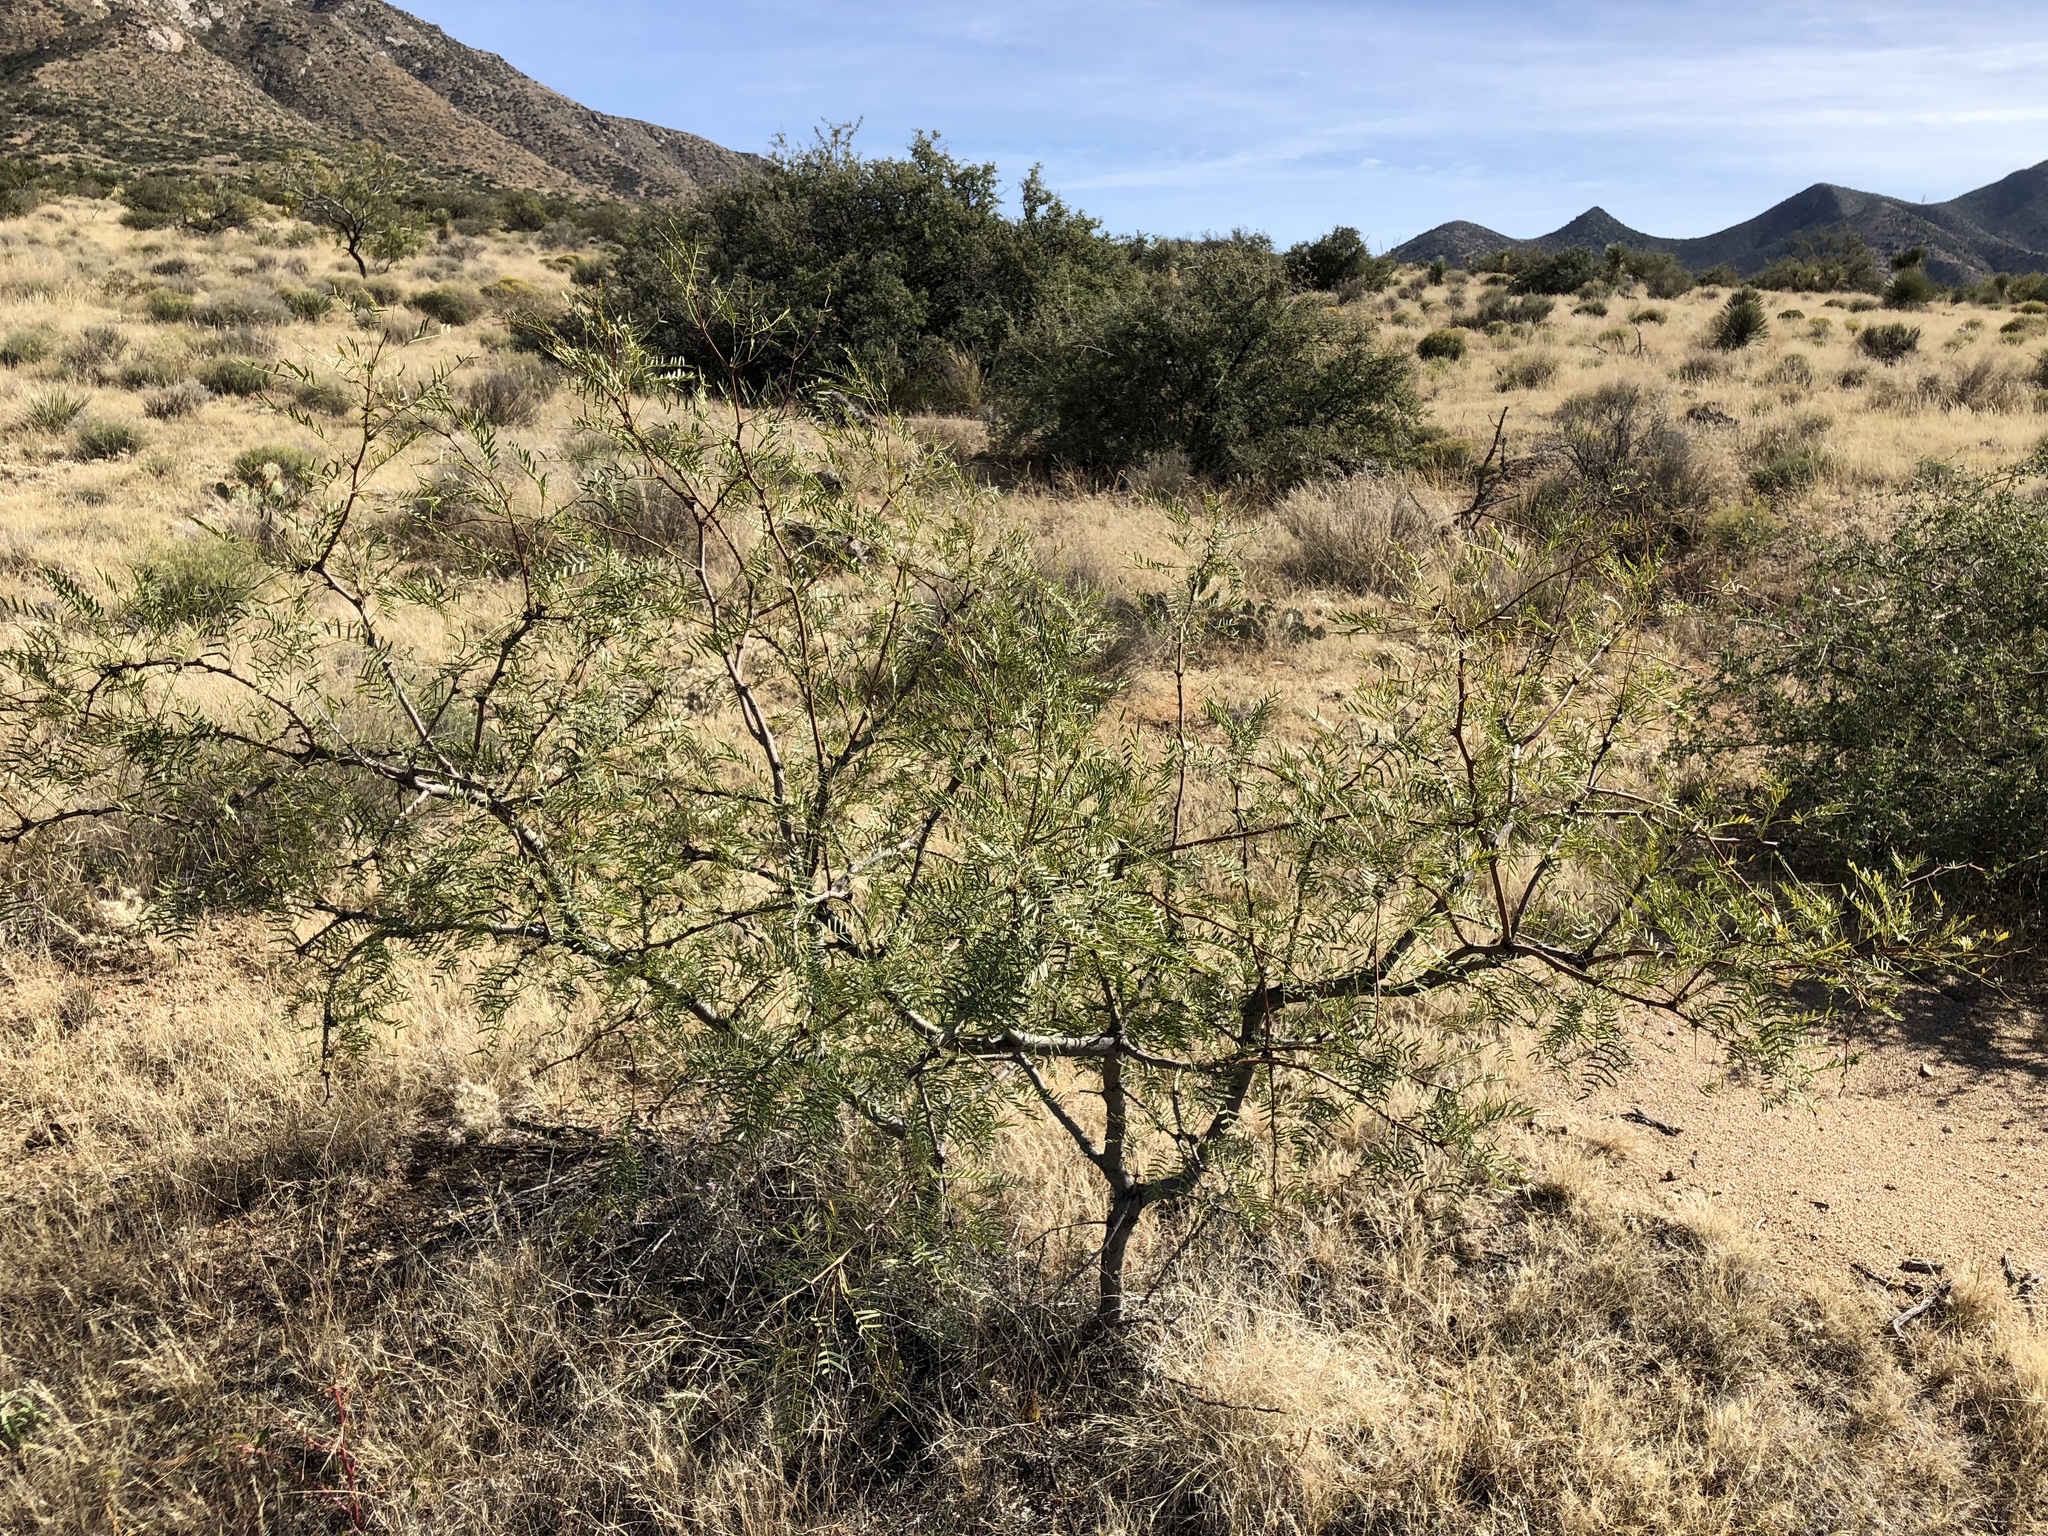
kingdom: Plantae
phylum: Tracheophyta
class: Magnoliopsida
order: Fabales
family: Fabaceae
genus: Prosopis
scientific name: Prosopis glandulosa
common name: Honey mesquite
